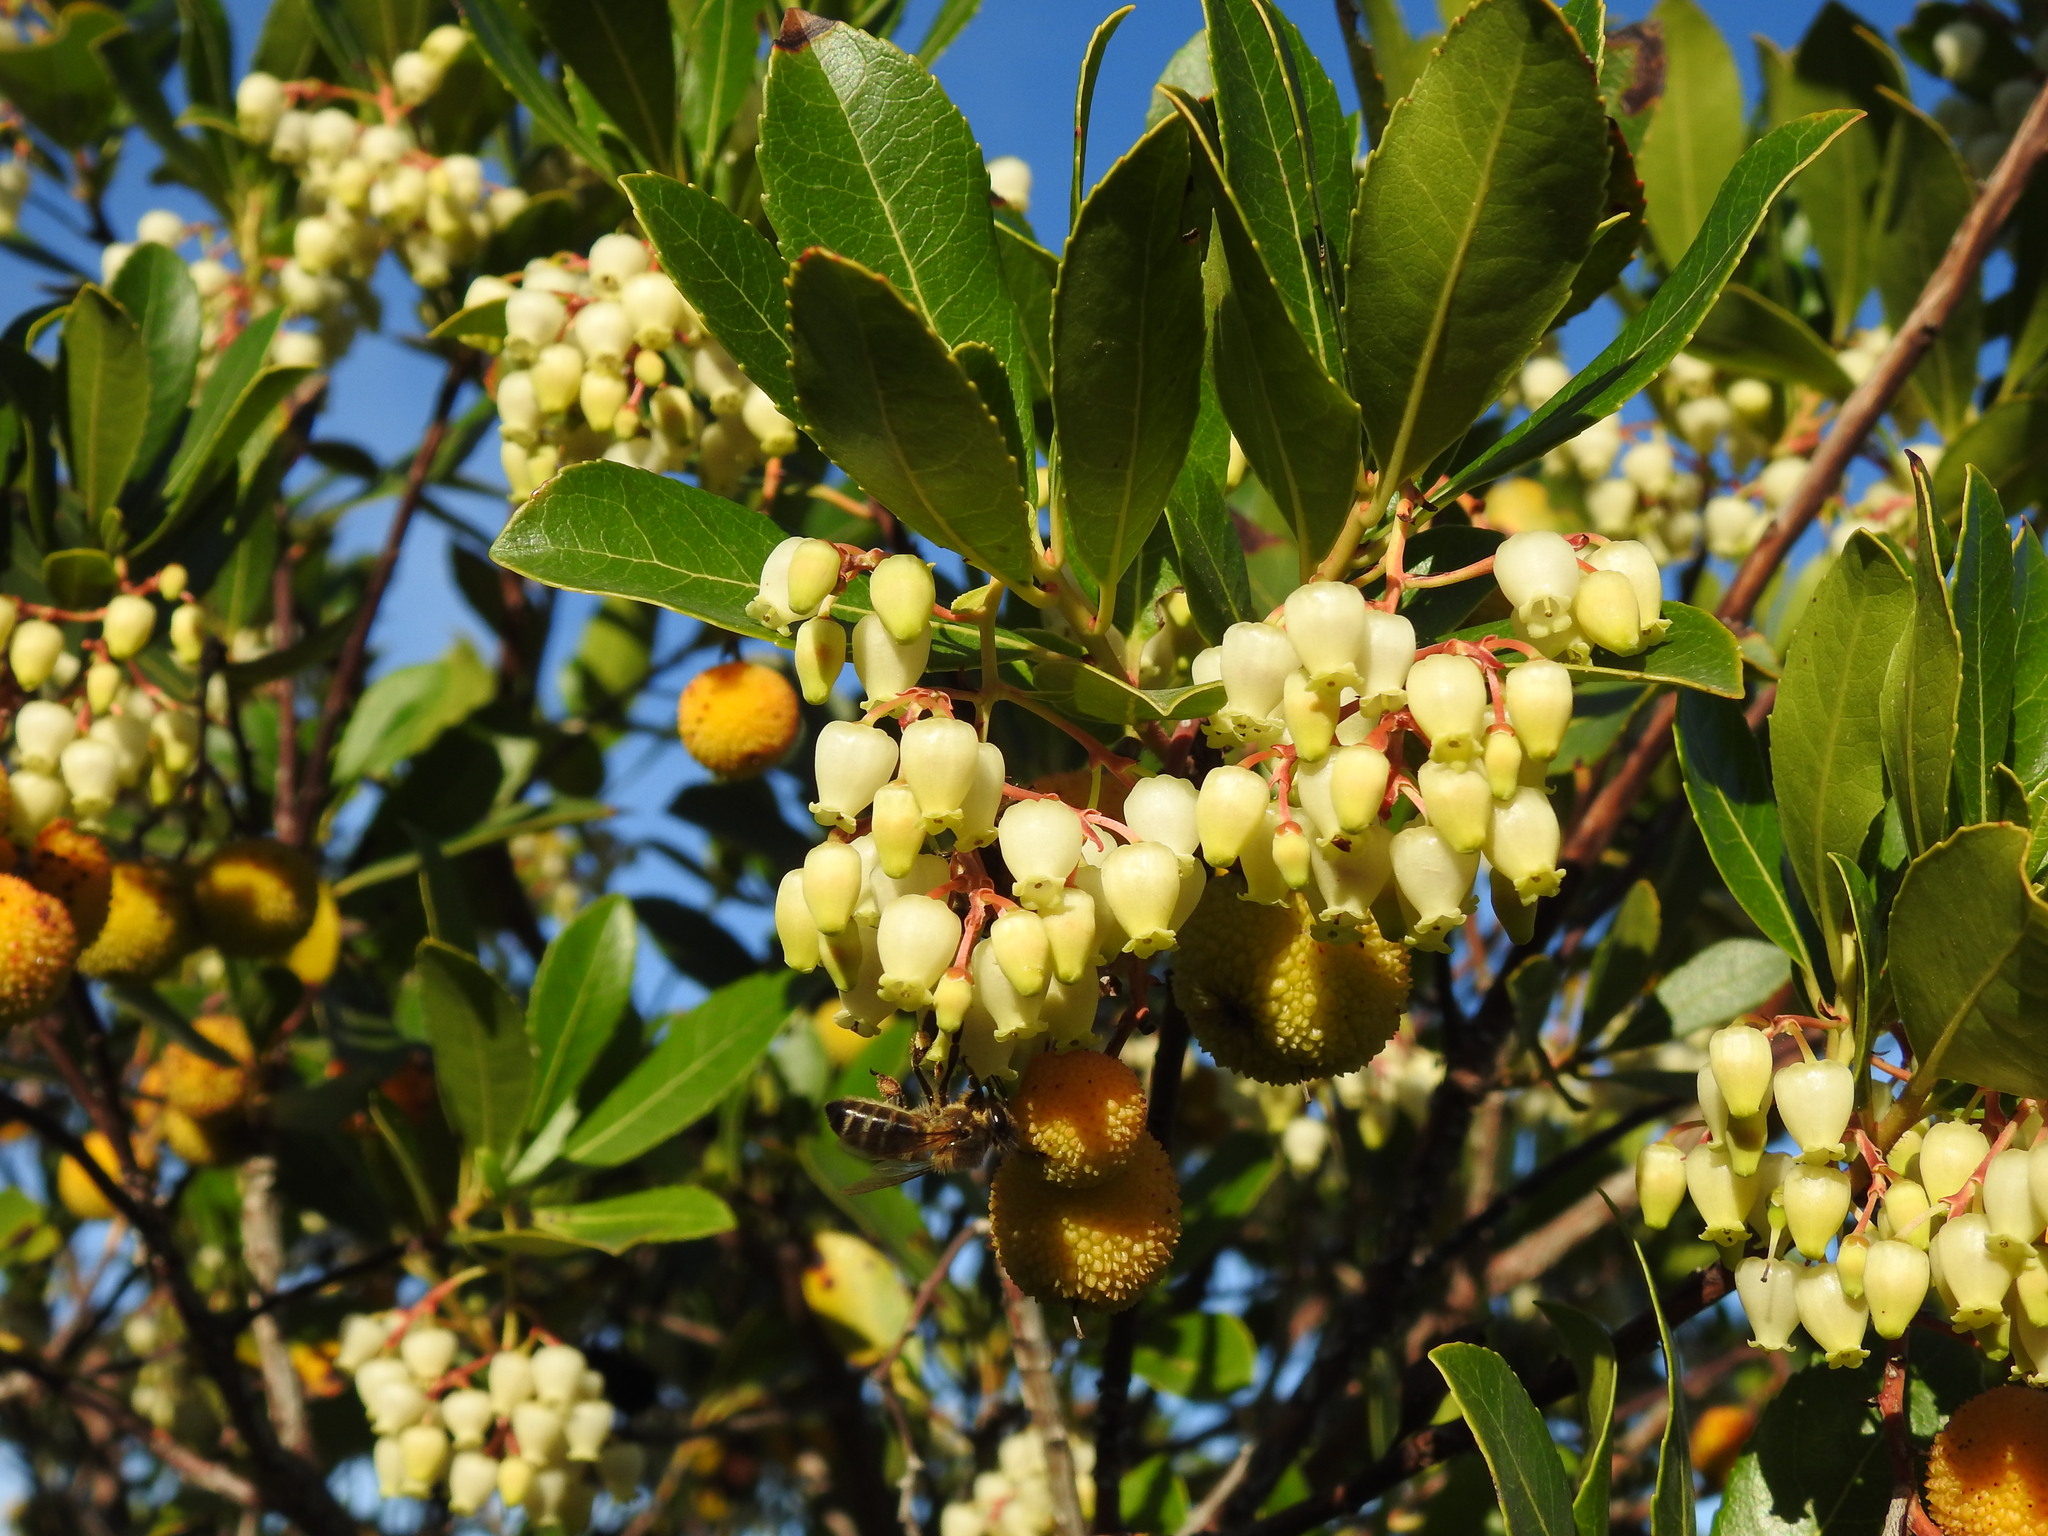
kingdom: Plantae
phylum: Tracheophyta
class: Magnoliopsida
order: Ericales
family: Ericaceae
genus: Arbutus
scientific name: Arbutus unedo
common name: Strawberry-tree
